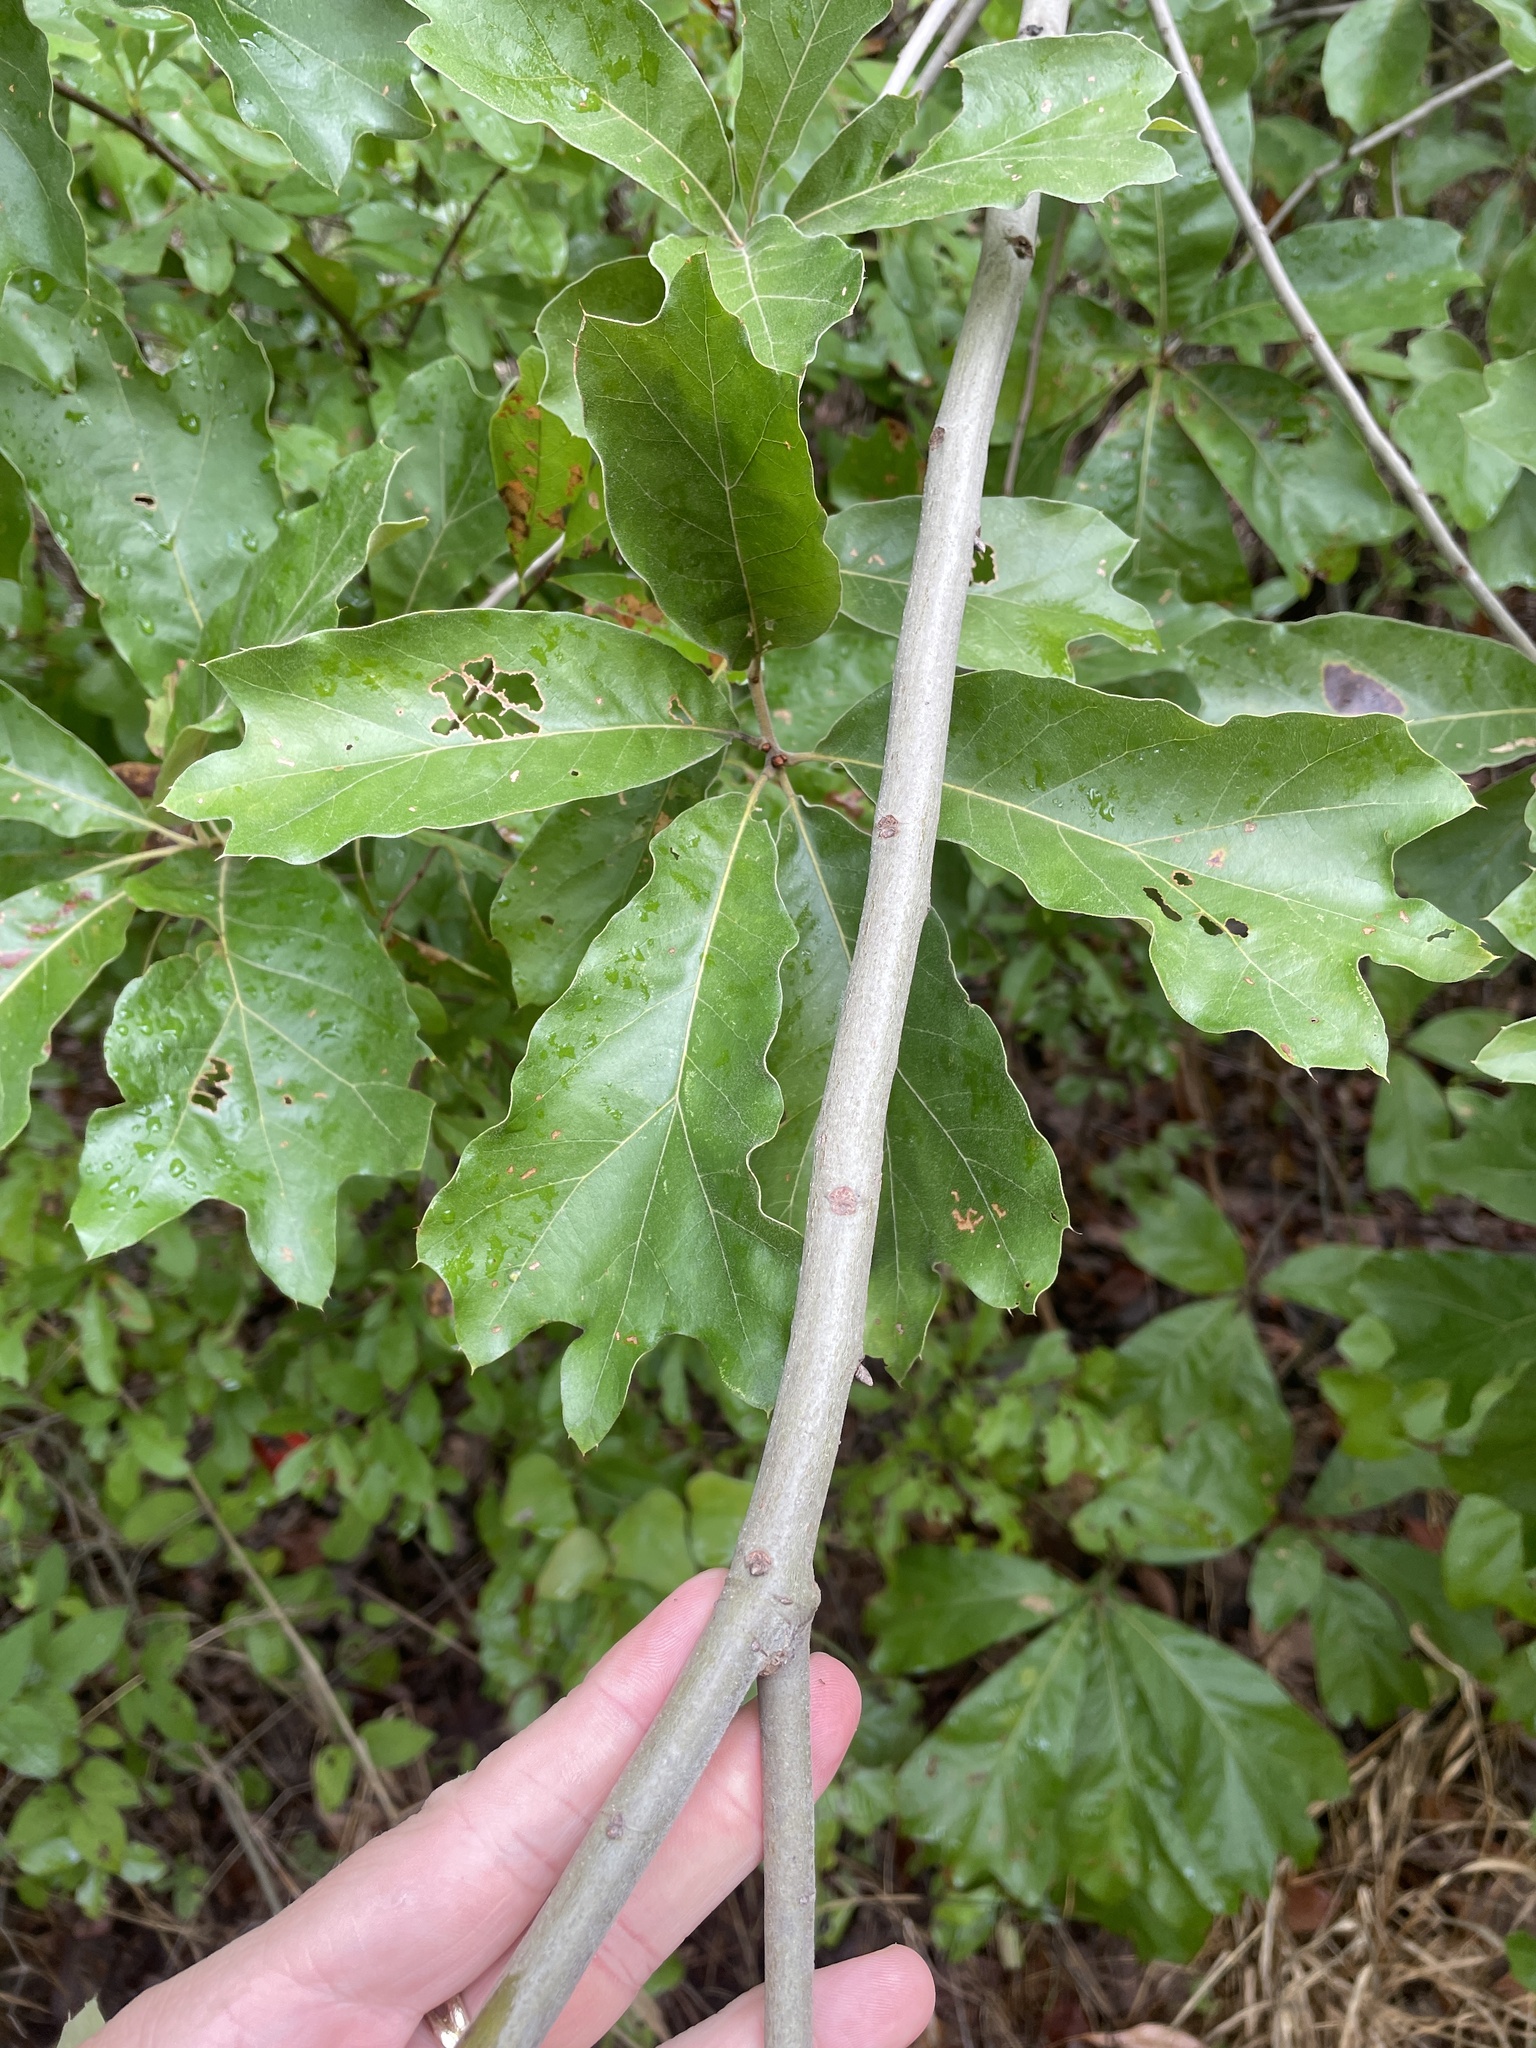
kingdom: Plantae
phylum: Tracheophyta
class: Magnoliopsida
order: Fagales
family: Fagaceae
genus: Quercus
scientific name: Quercus falcata
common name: Southern red oak
